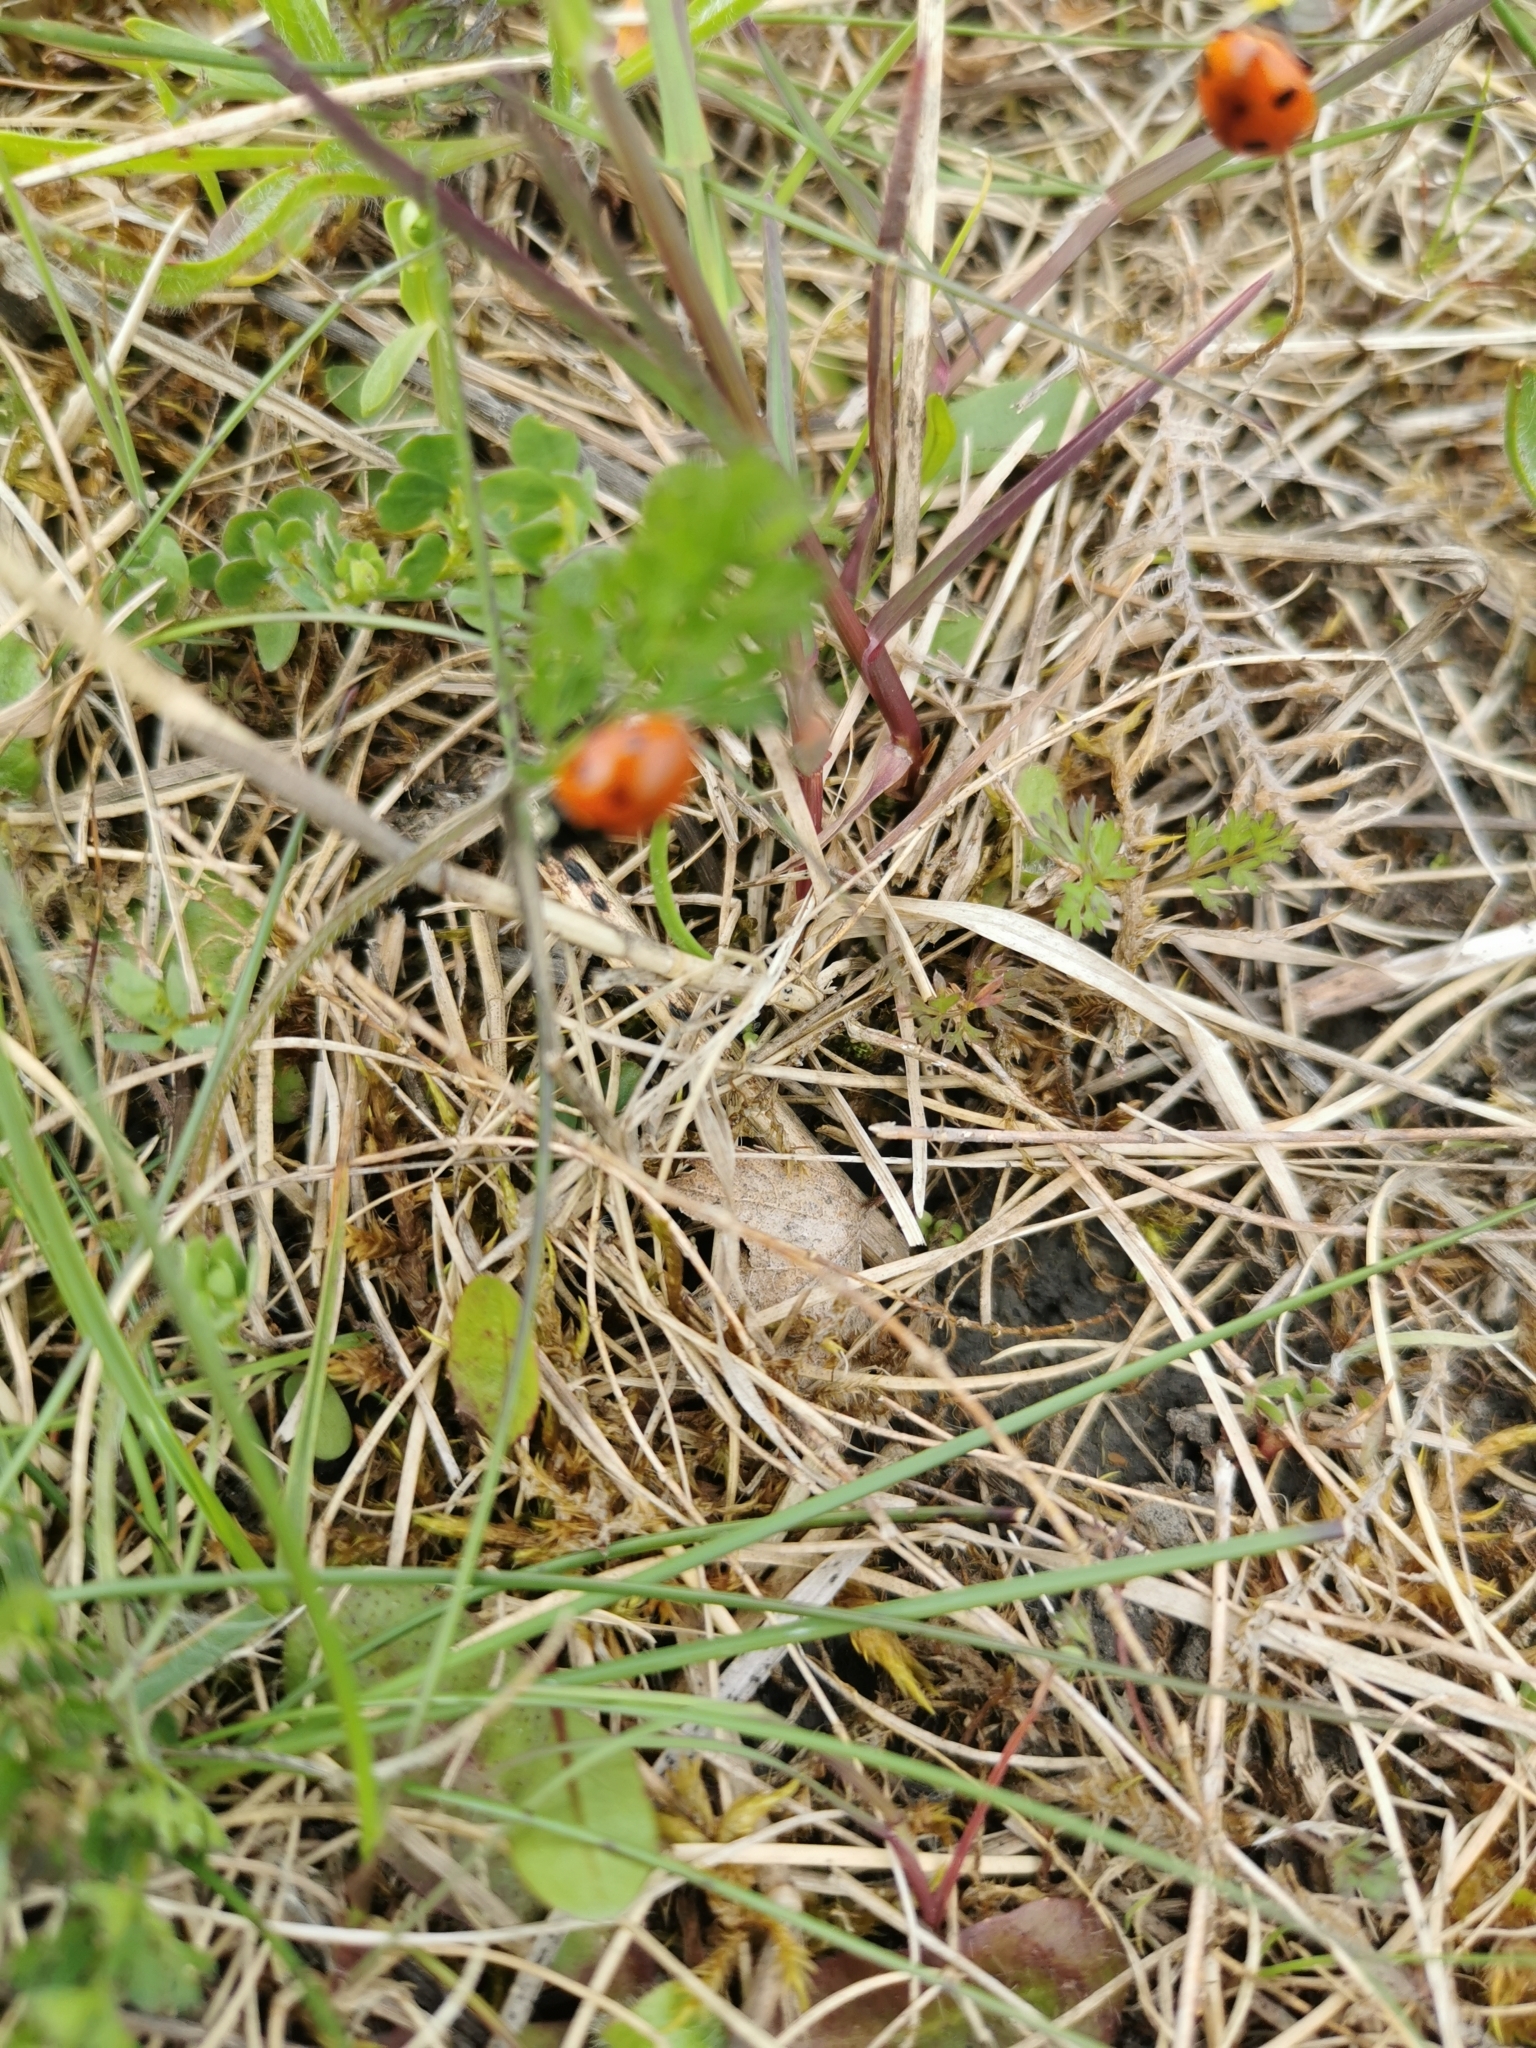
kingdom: Animalia
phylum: Arthropoda
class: Insecta
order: Coleoptera
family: Coccinellidae
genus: Coccinella
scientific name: Coccinella septempunctata
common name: Sevenspotted lady beetle
